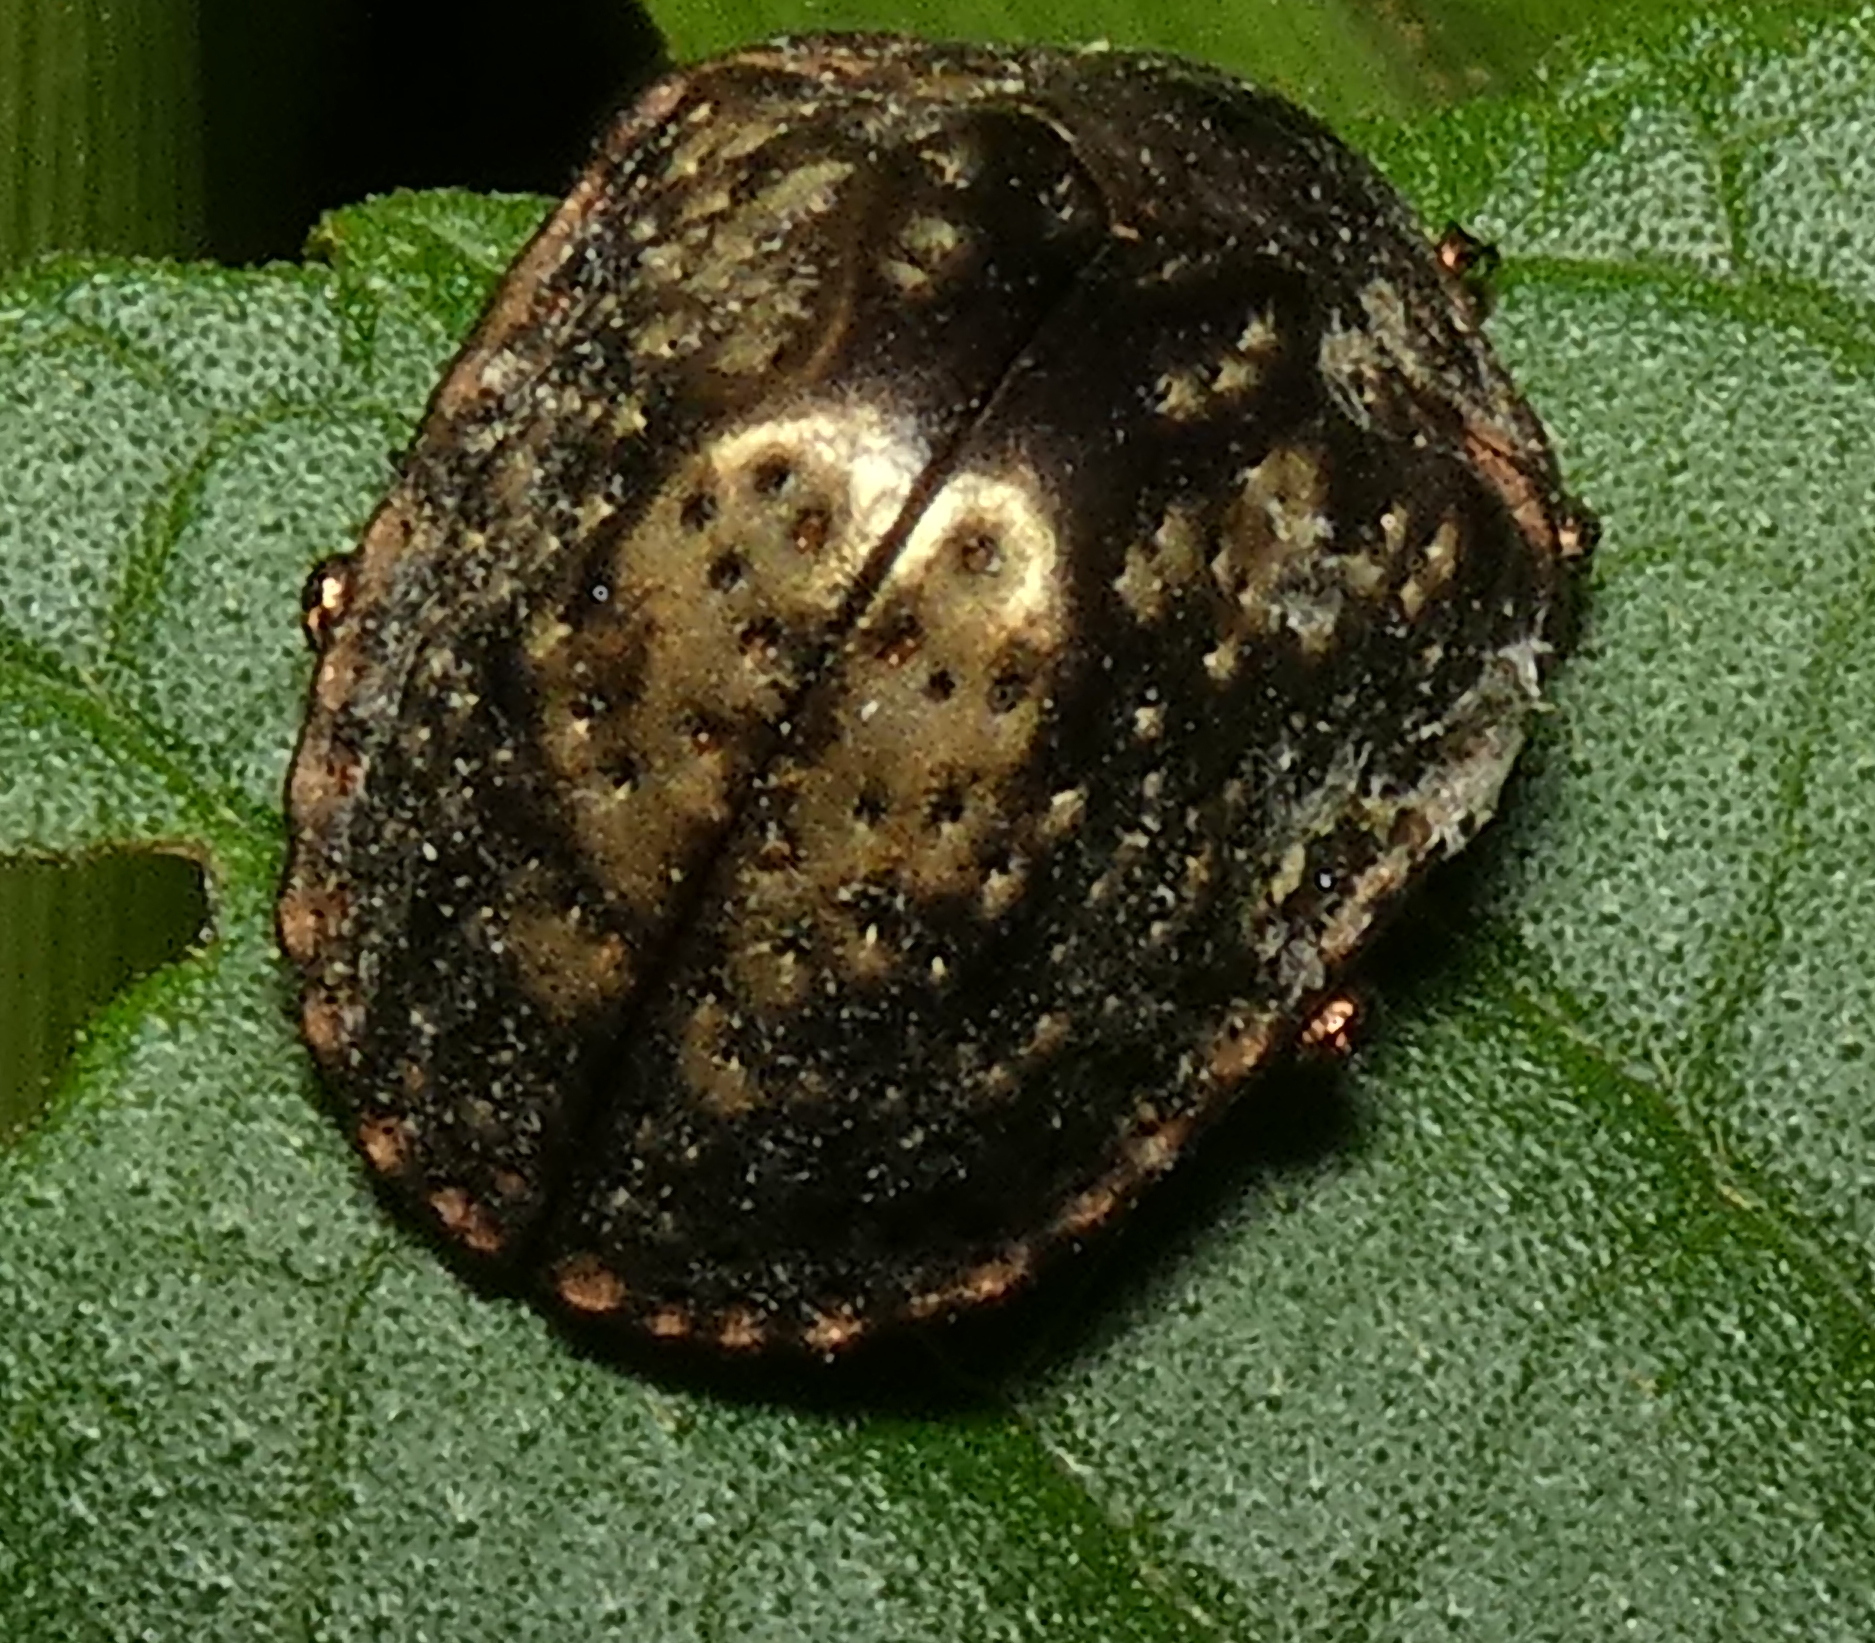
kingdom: Animalia
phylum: Arthropoda
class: Insecta
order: Coleoptera
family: Chrysomelidae
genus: Polychalca
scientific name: Polychalca aerea
